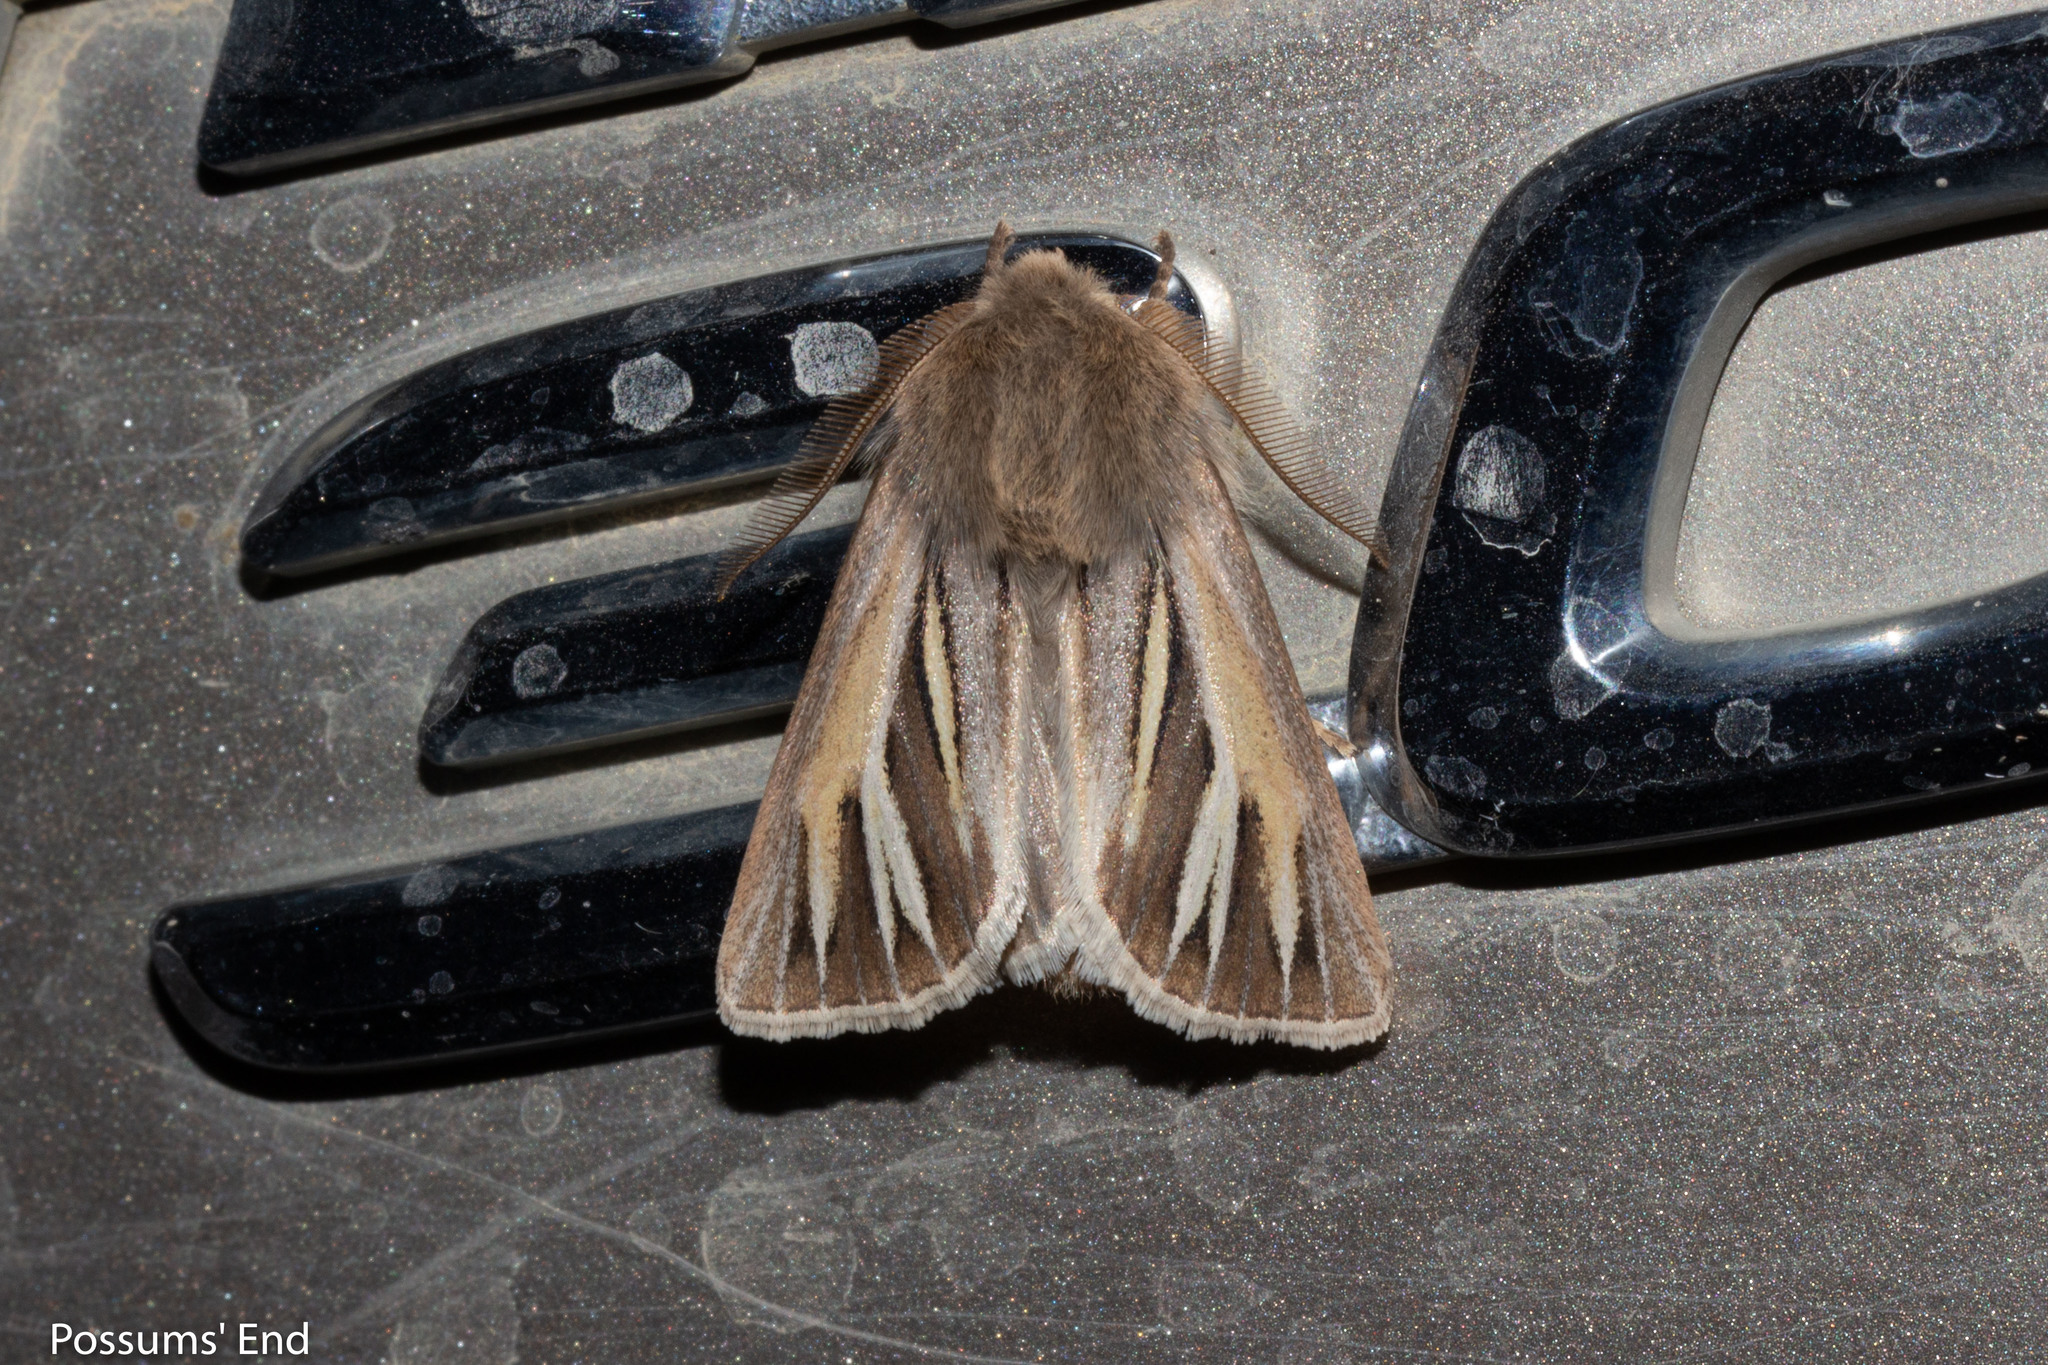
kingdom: Animalia
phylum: Arthropoda
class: Insecta
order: Lepidoptera
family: Noctuidae
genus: Ichneutica
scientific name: Ichneutica caraunias
